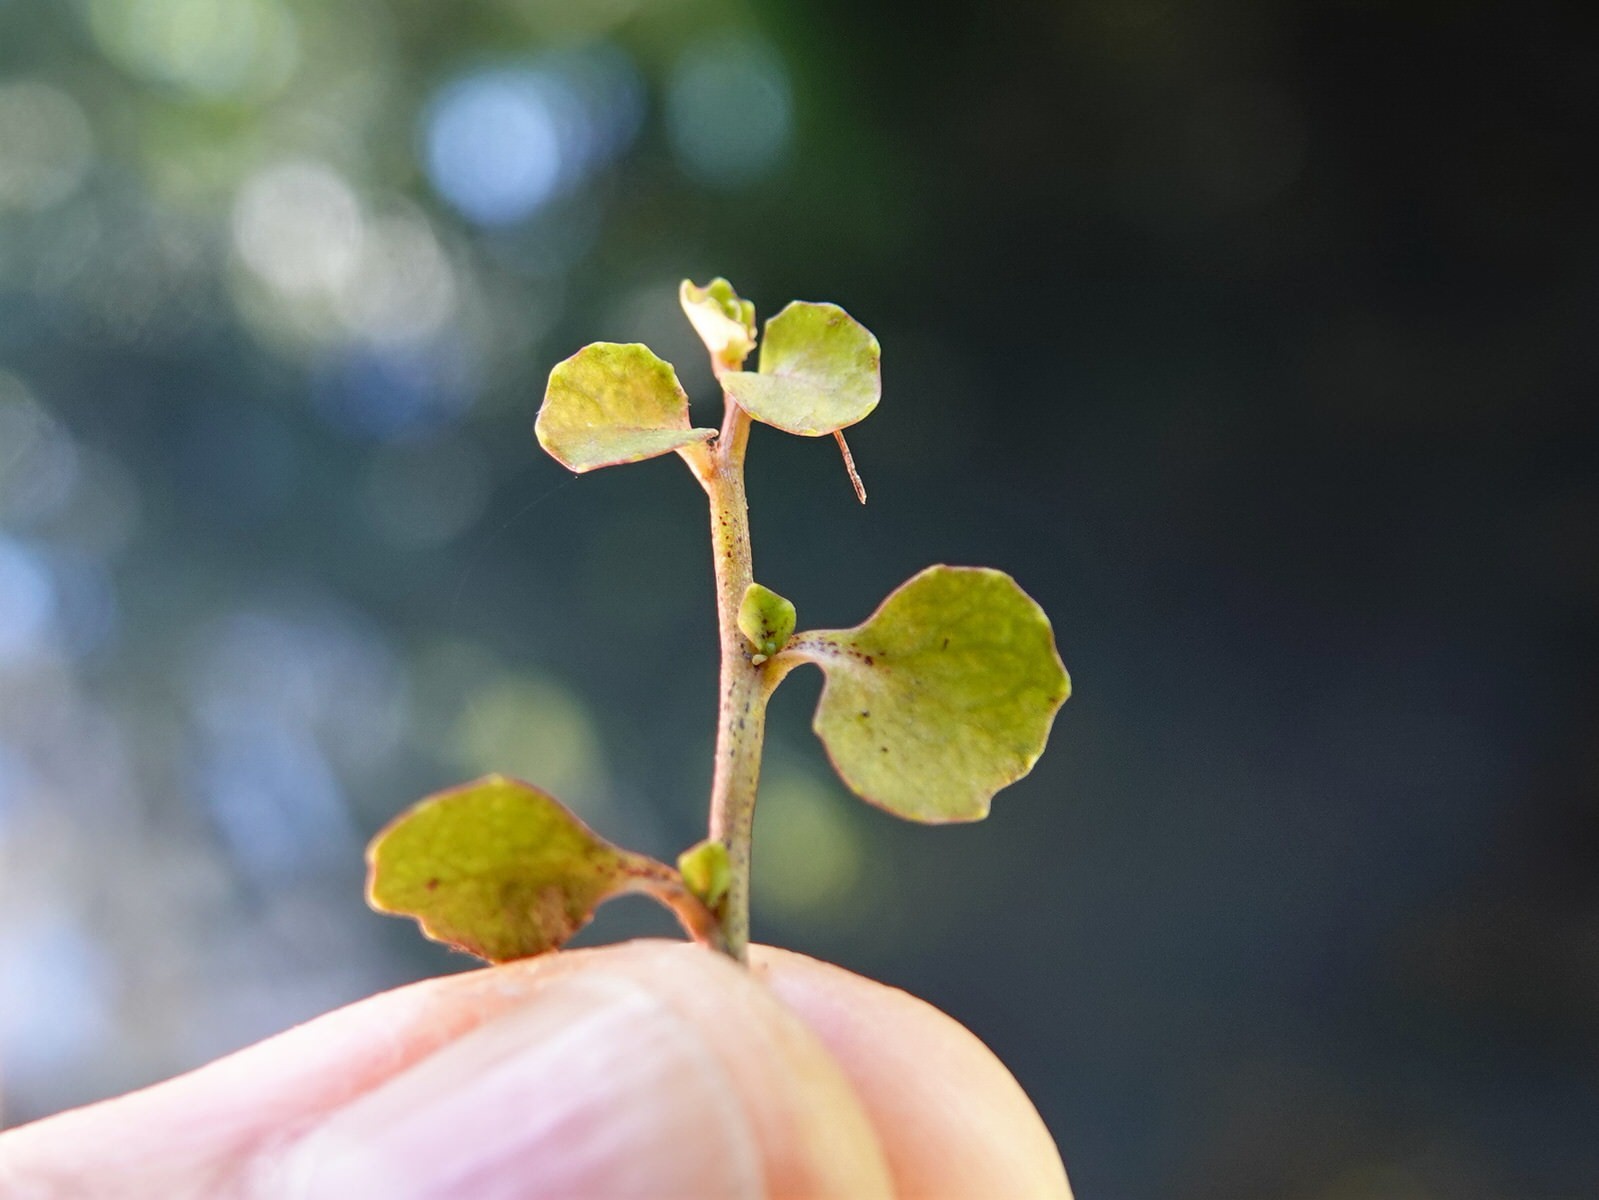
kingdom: Plantae
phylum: Tracheophyta
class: Magnoliopsida
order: Asterales
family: Campanulaceae
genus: Lobelia
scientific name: Lobelia angulata
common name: Lawn lobelia
